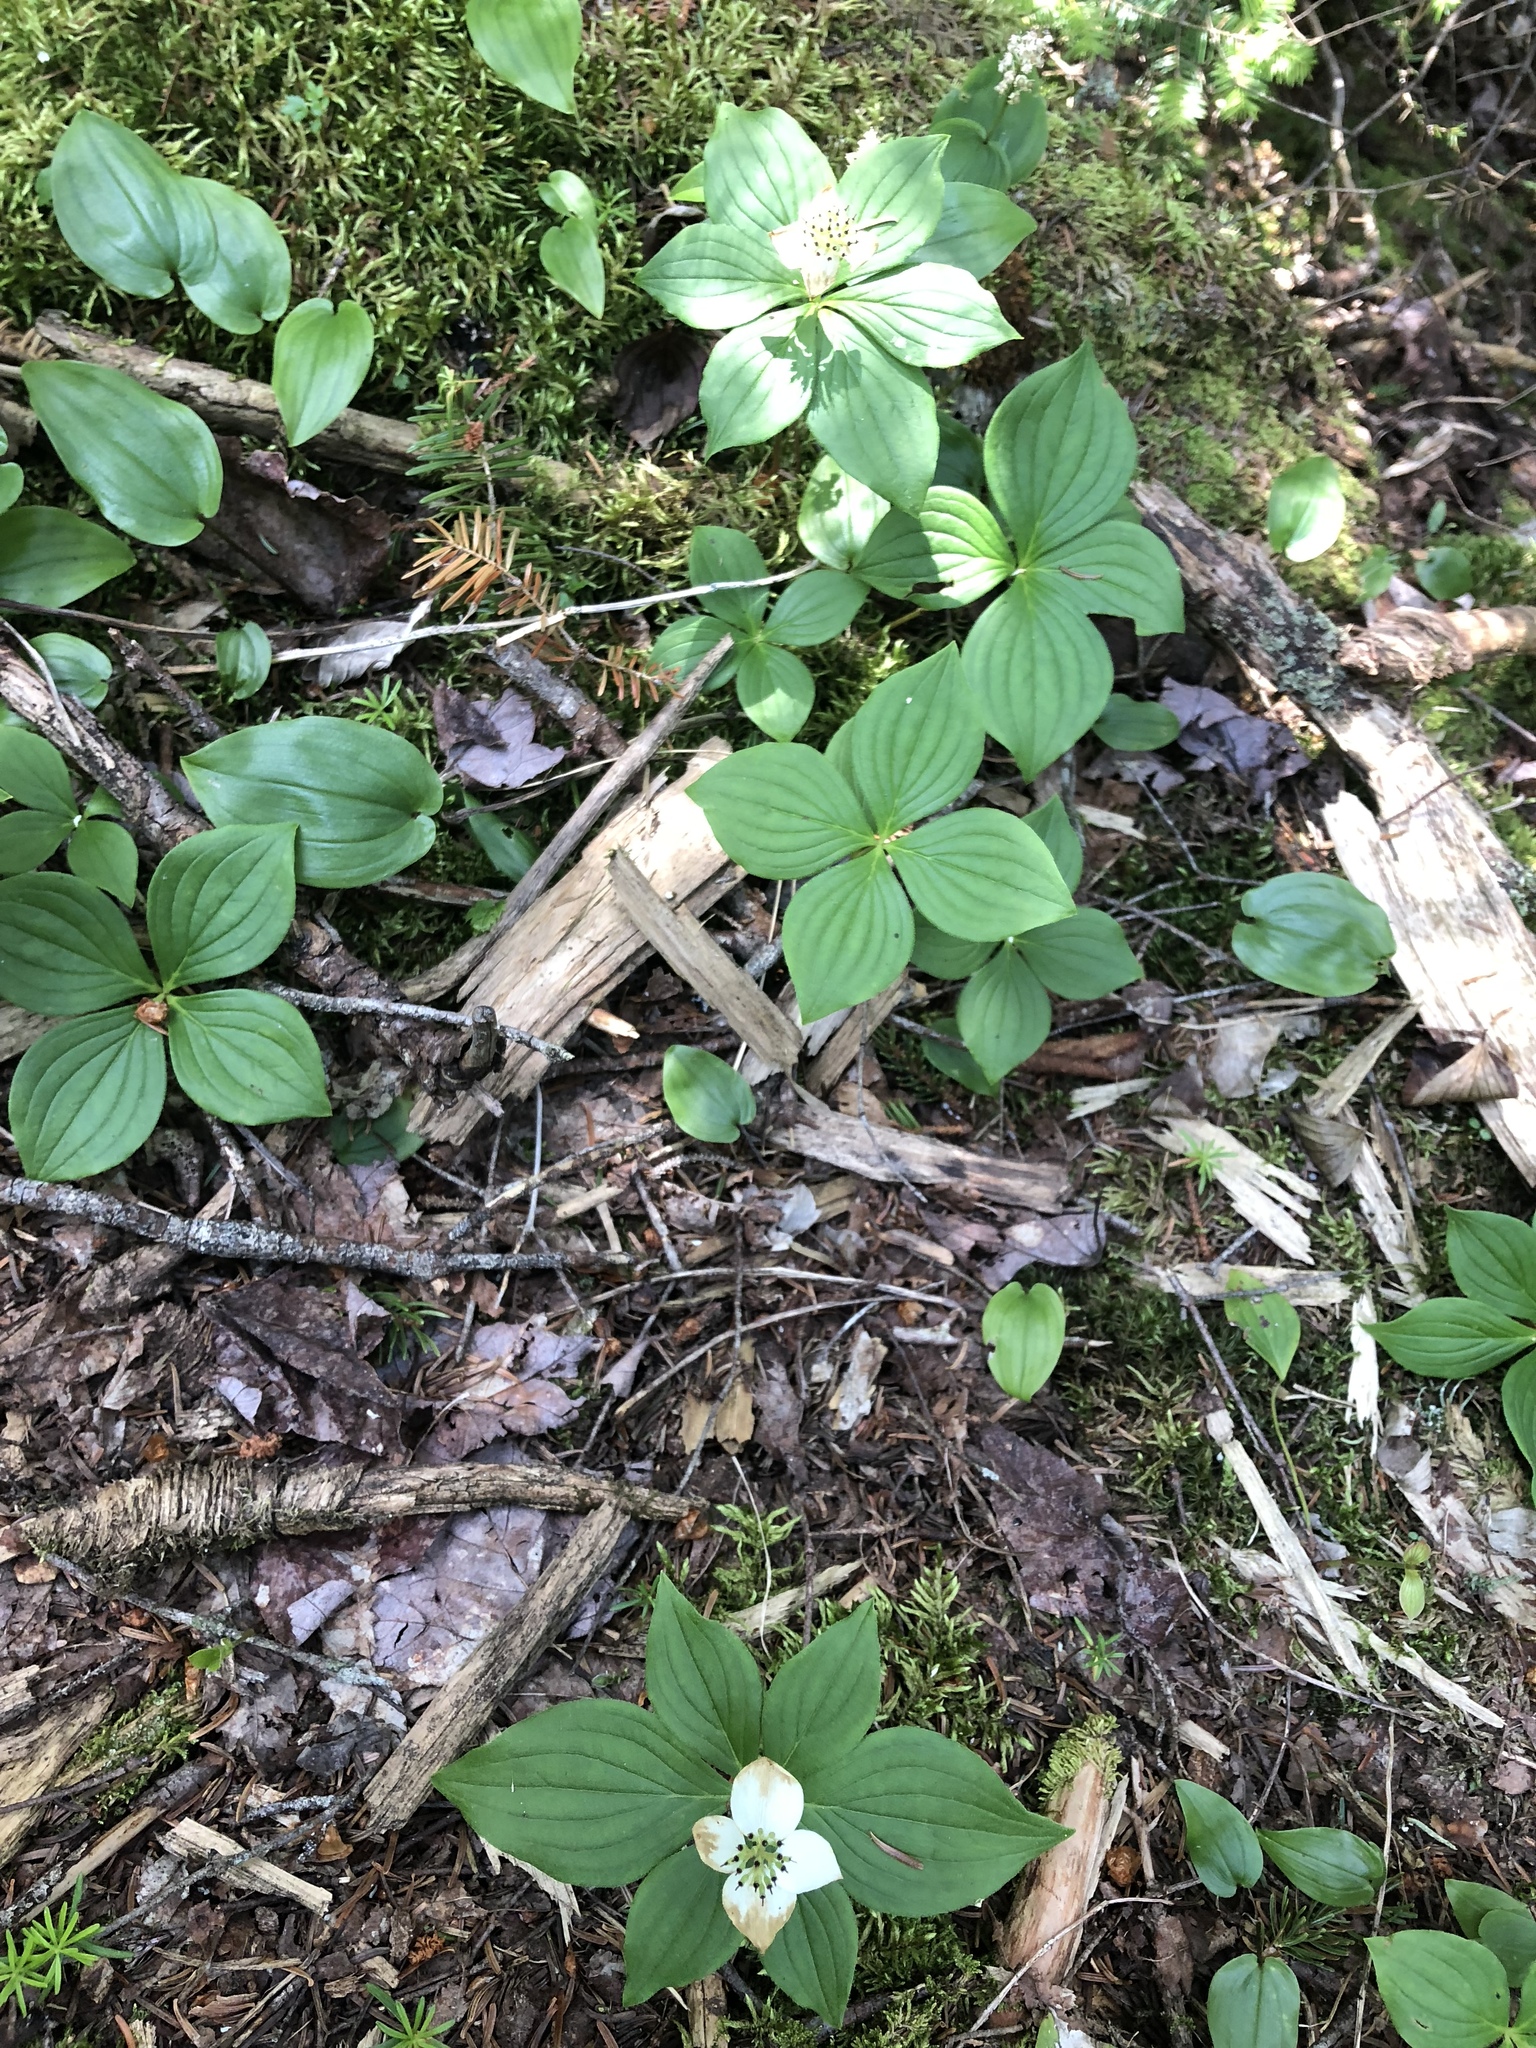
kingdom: Plantae
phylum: Tracheophyta
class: Magnoliopsida
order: Cornales
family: Cornaceae
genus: Cornus
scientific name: Cornus canadensis
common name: Creeping dogwood
